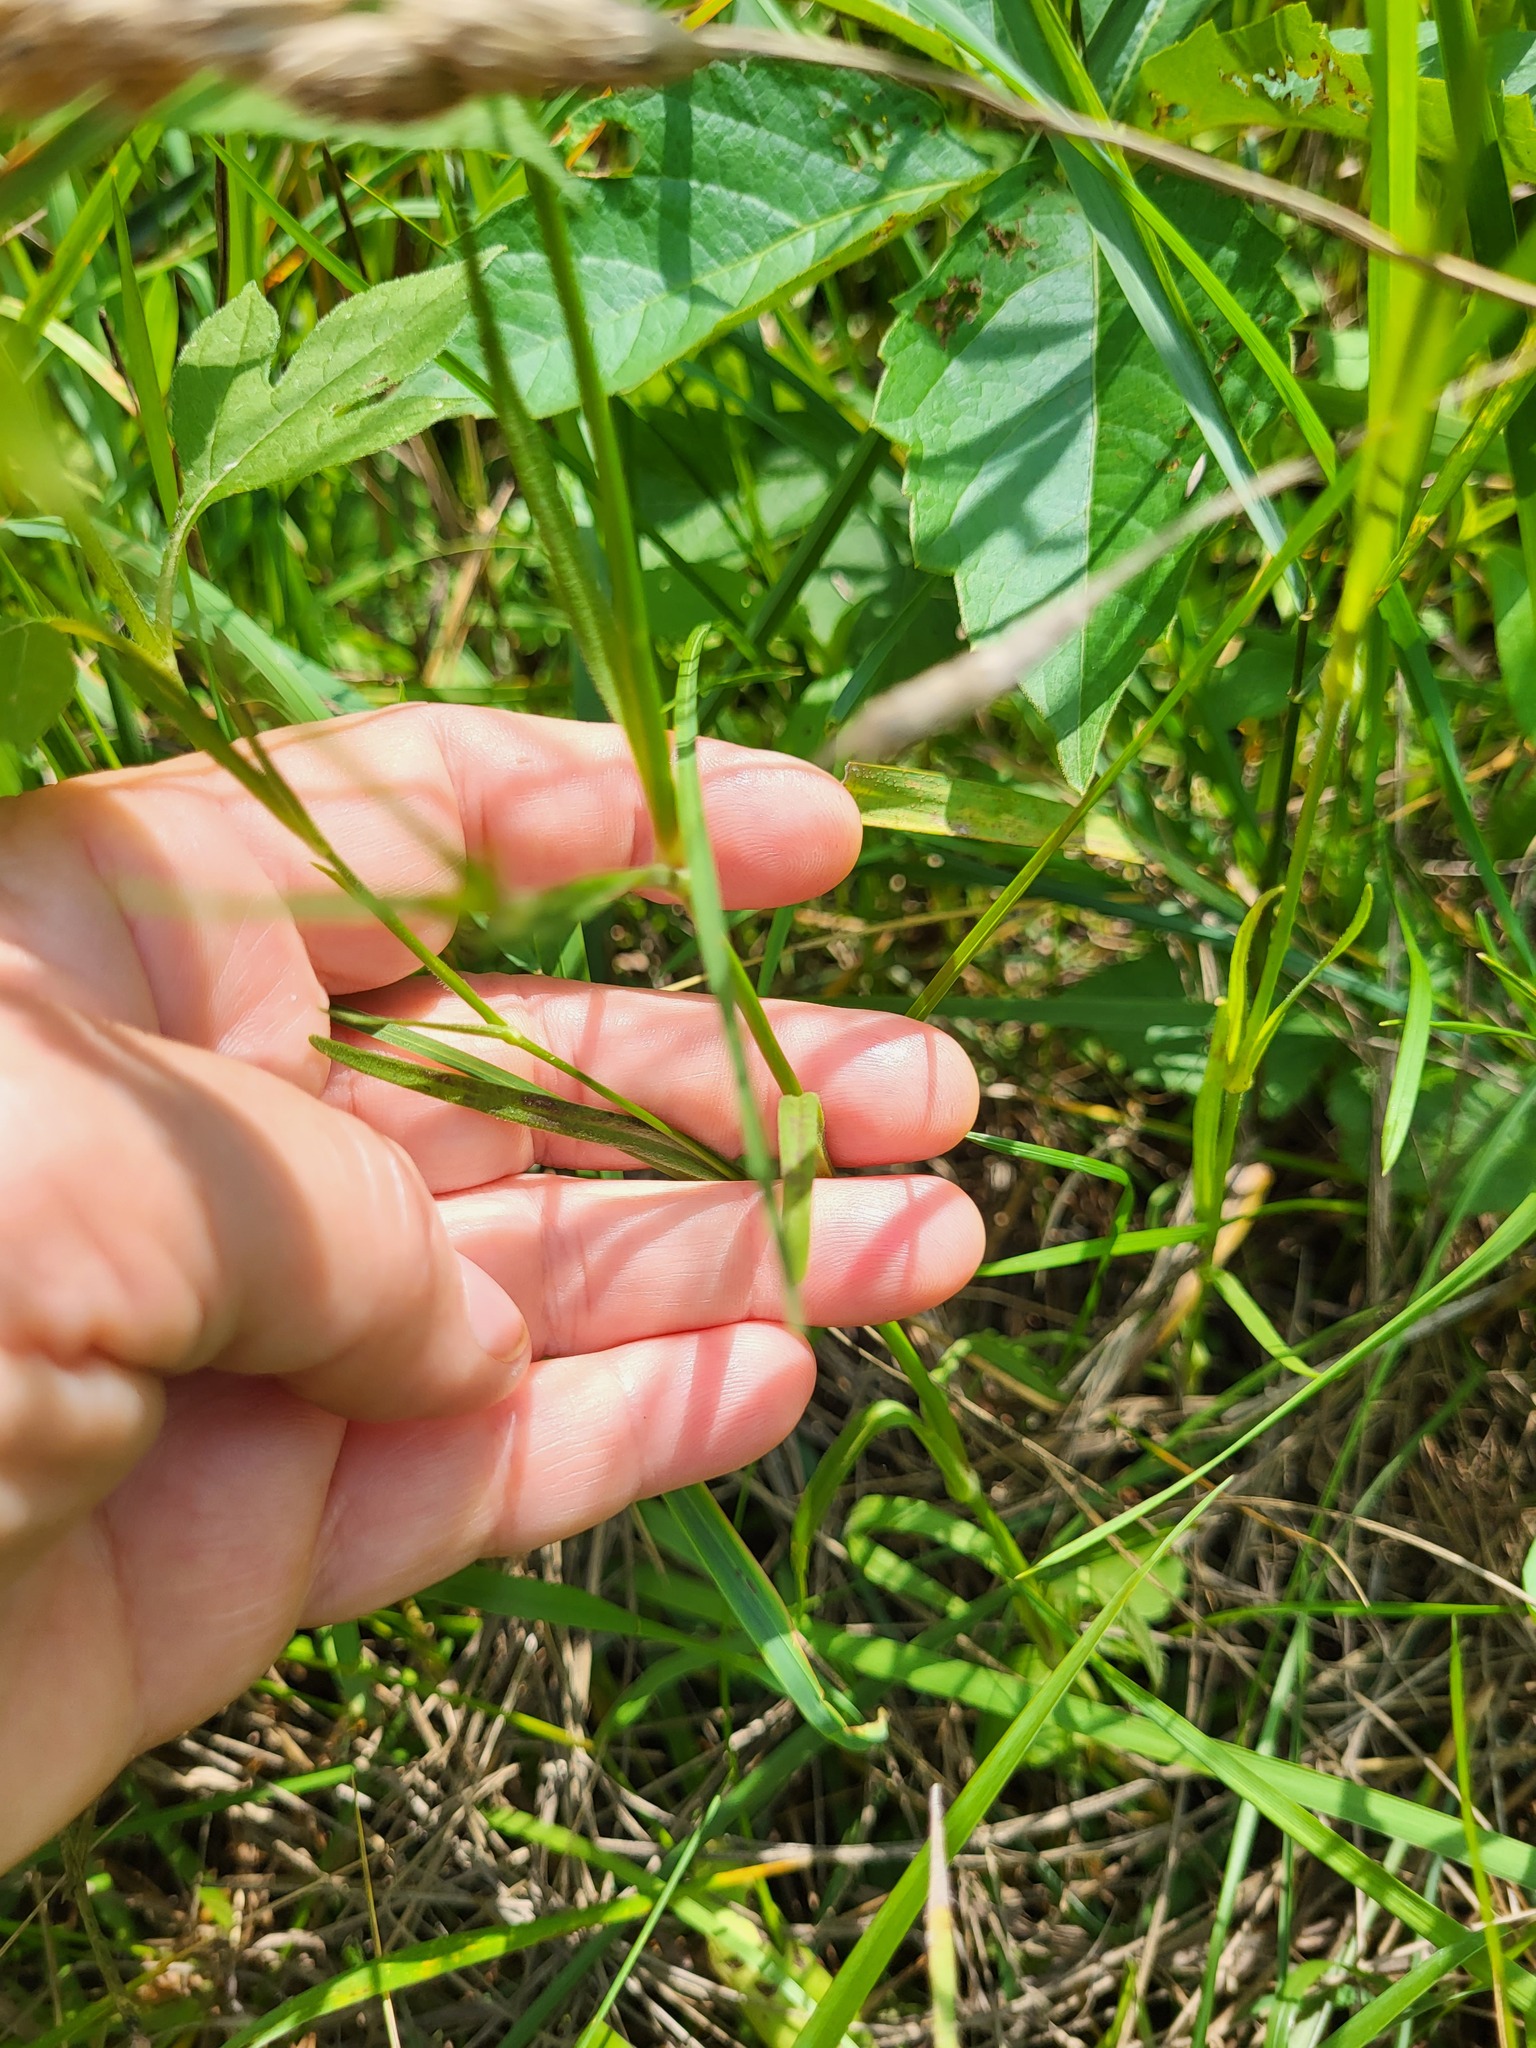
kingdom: Plantae
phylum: Tracheophyta
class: Magnoliopsida
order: Caryophyllales
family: Caryophyllaceae
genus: Dianthus
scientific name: Dianthus armeria
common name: Deptford pink
